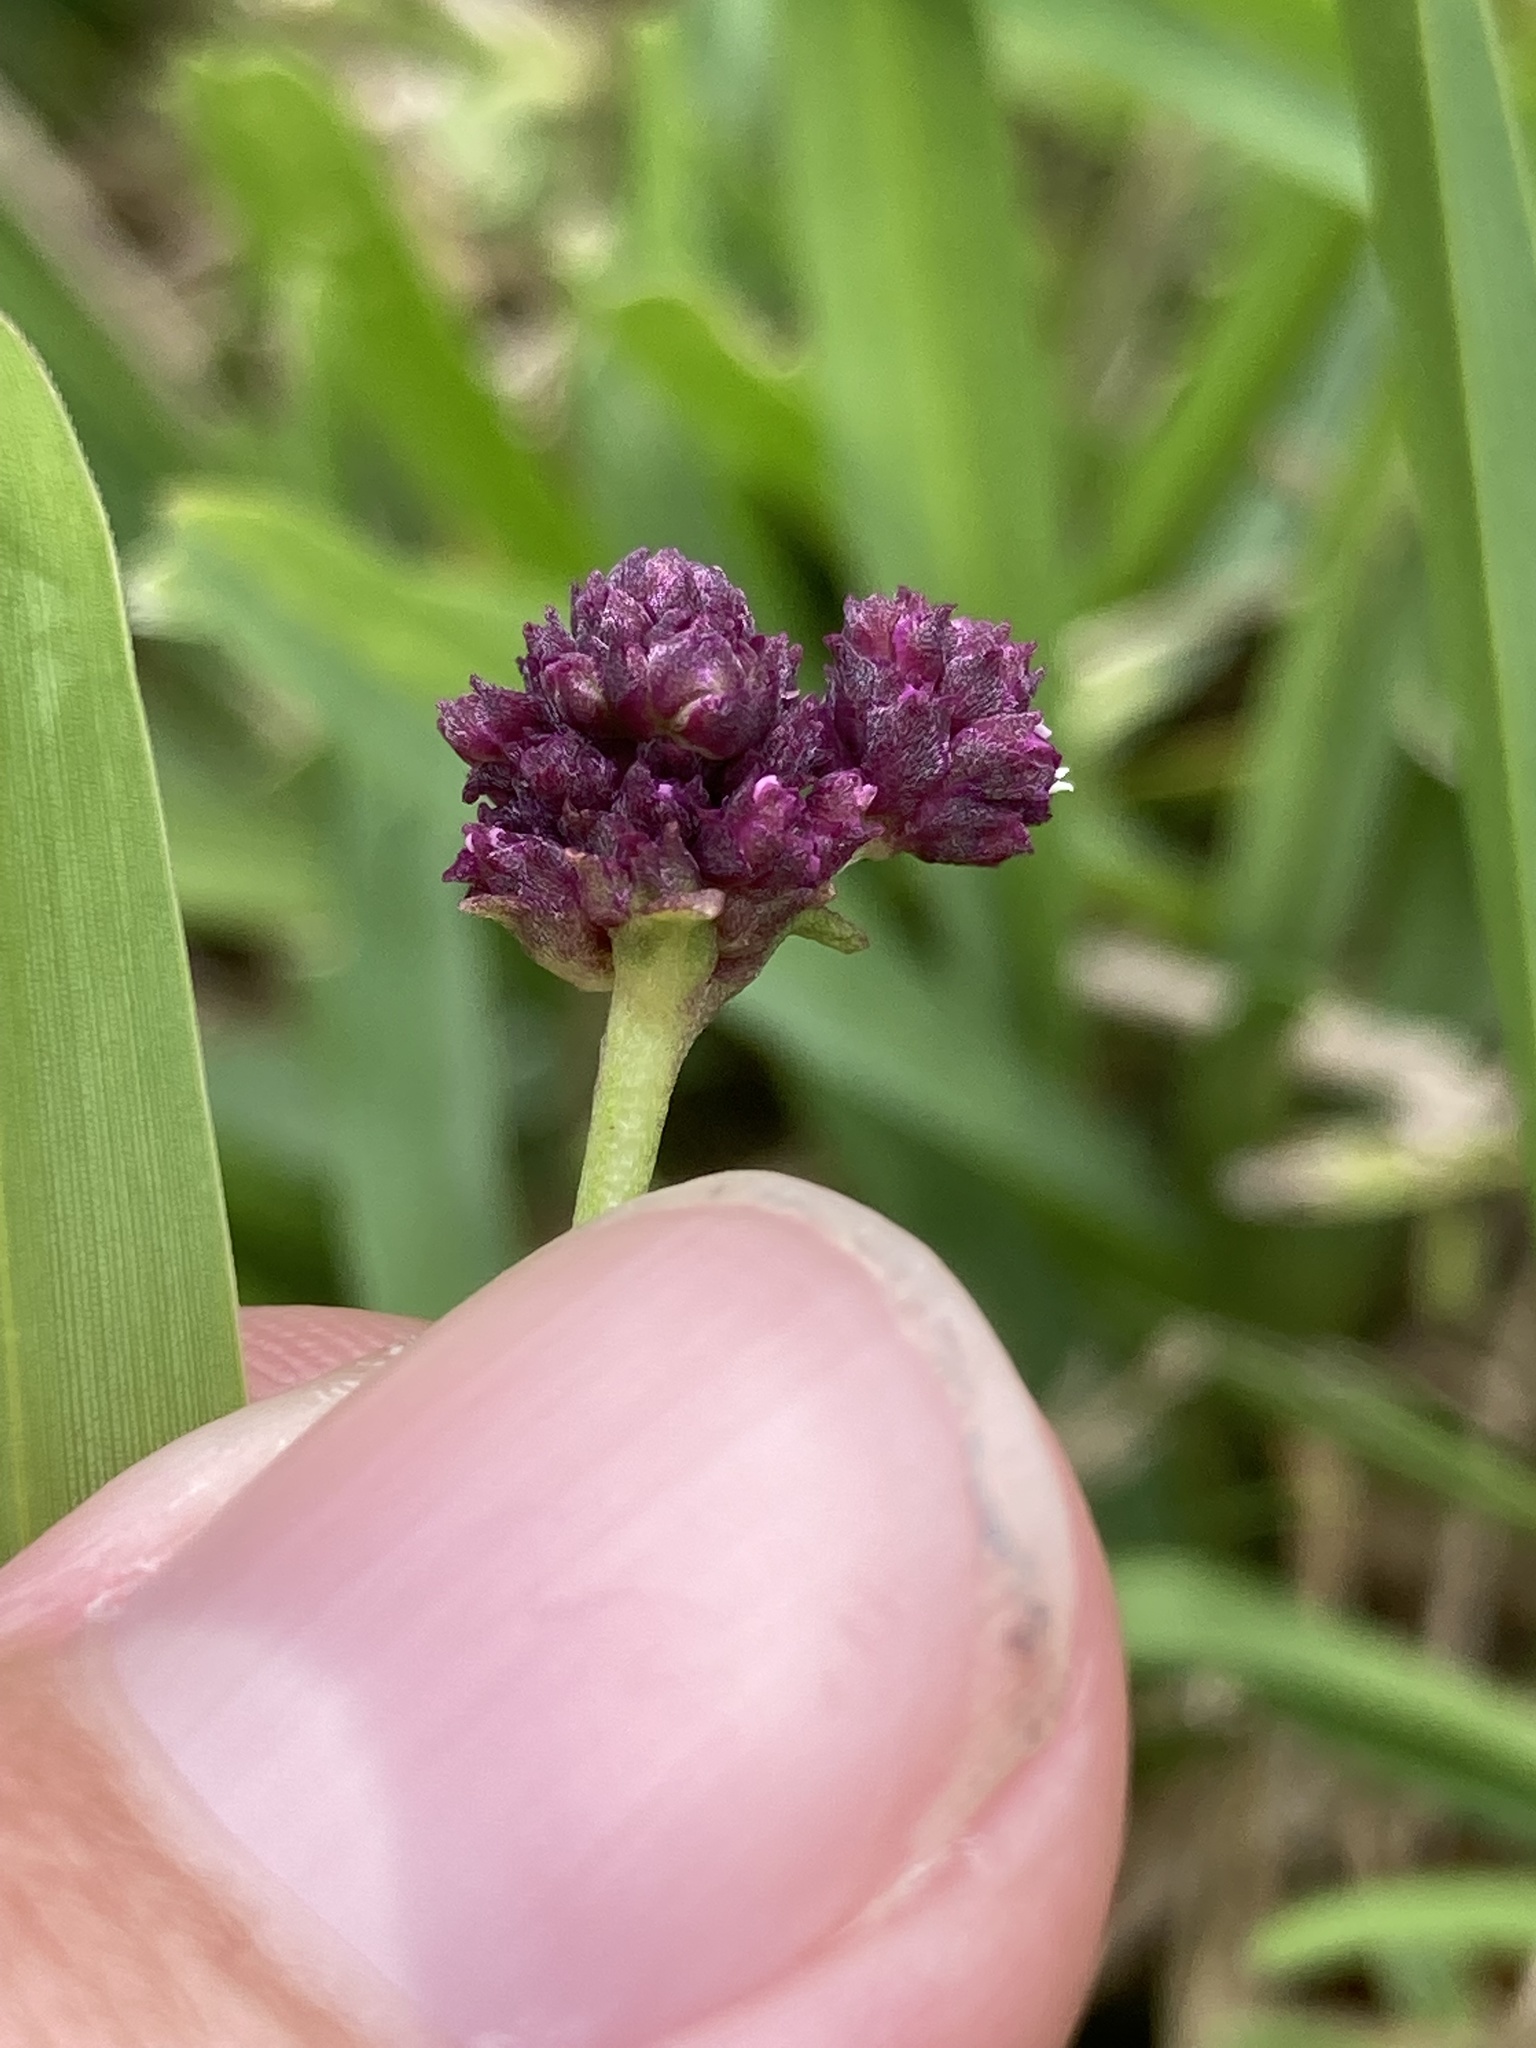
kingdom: Plantae
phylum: Tracheophyta
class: Magnoliopsida
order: Lamiales
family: Verbenaceae
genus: Phyla
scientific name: Phyla nodiflora
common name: Frogfruit
